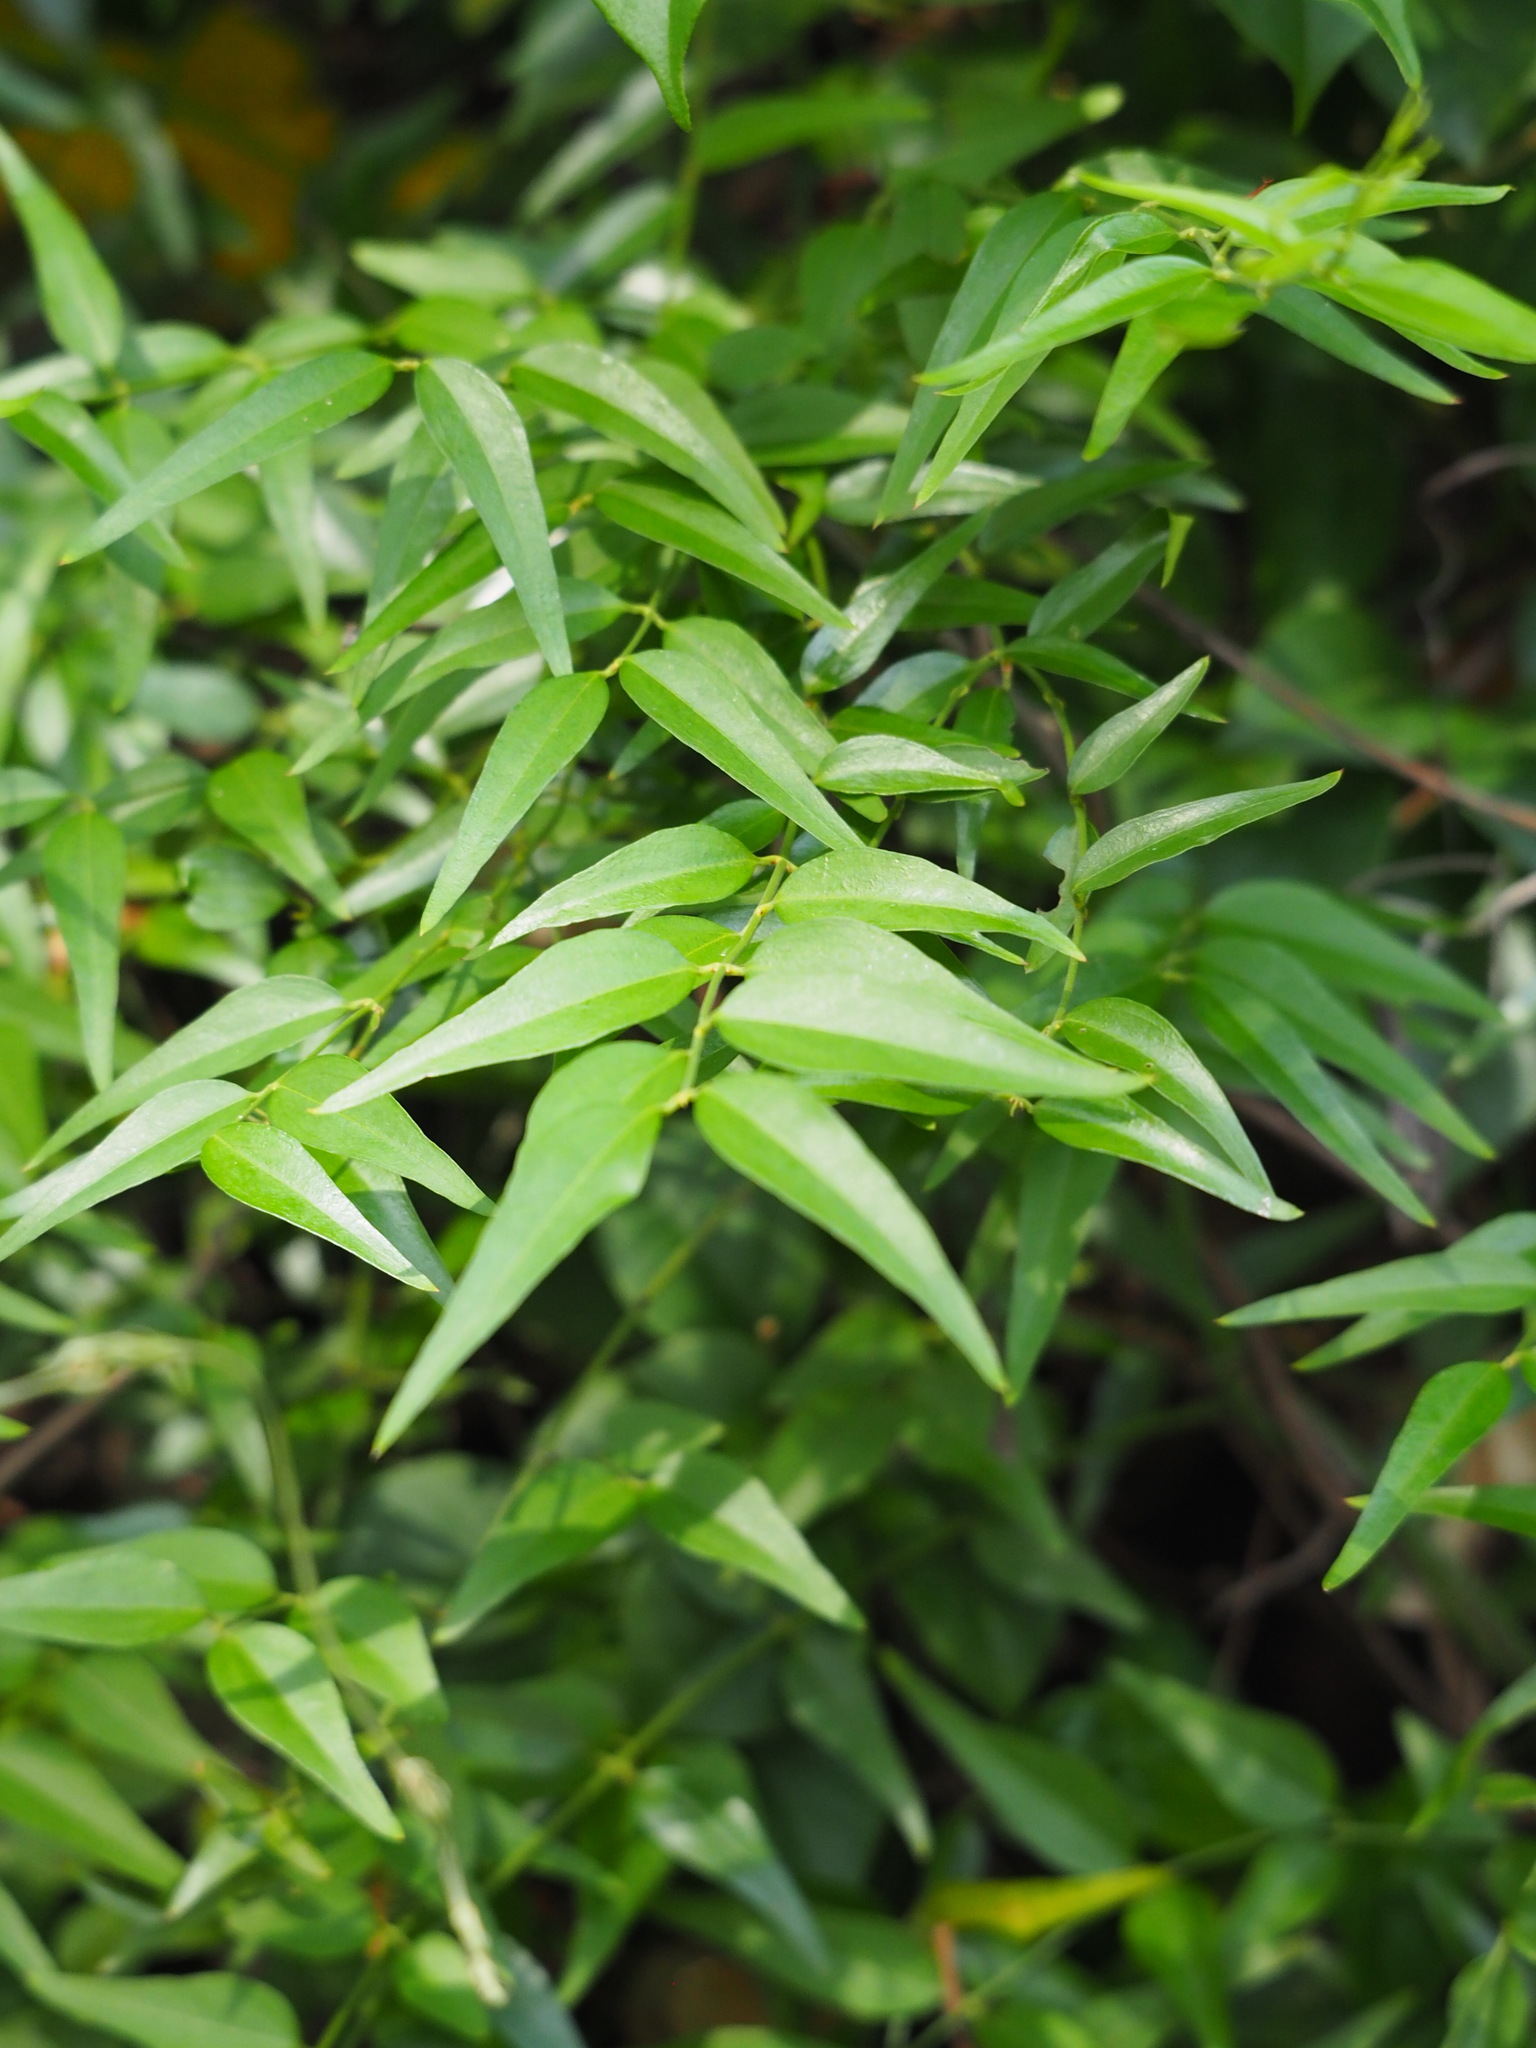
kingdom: Plantae
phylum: Tracheophyta
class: Magnoliopsida
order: Lamiales
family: Oleaceae
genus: Jasminum
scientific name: Jasminum nervosum
